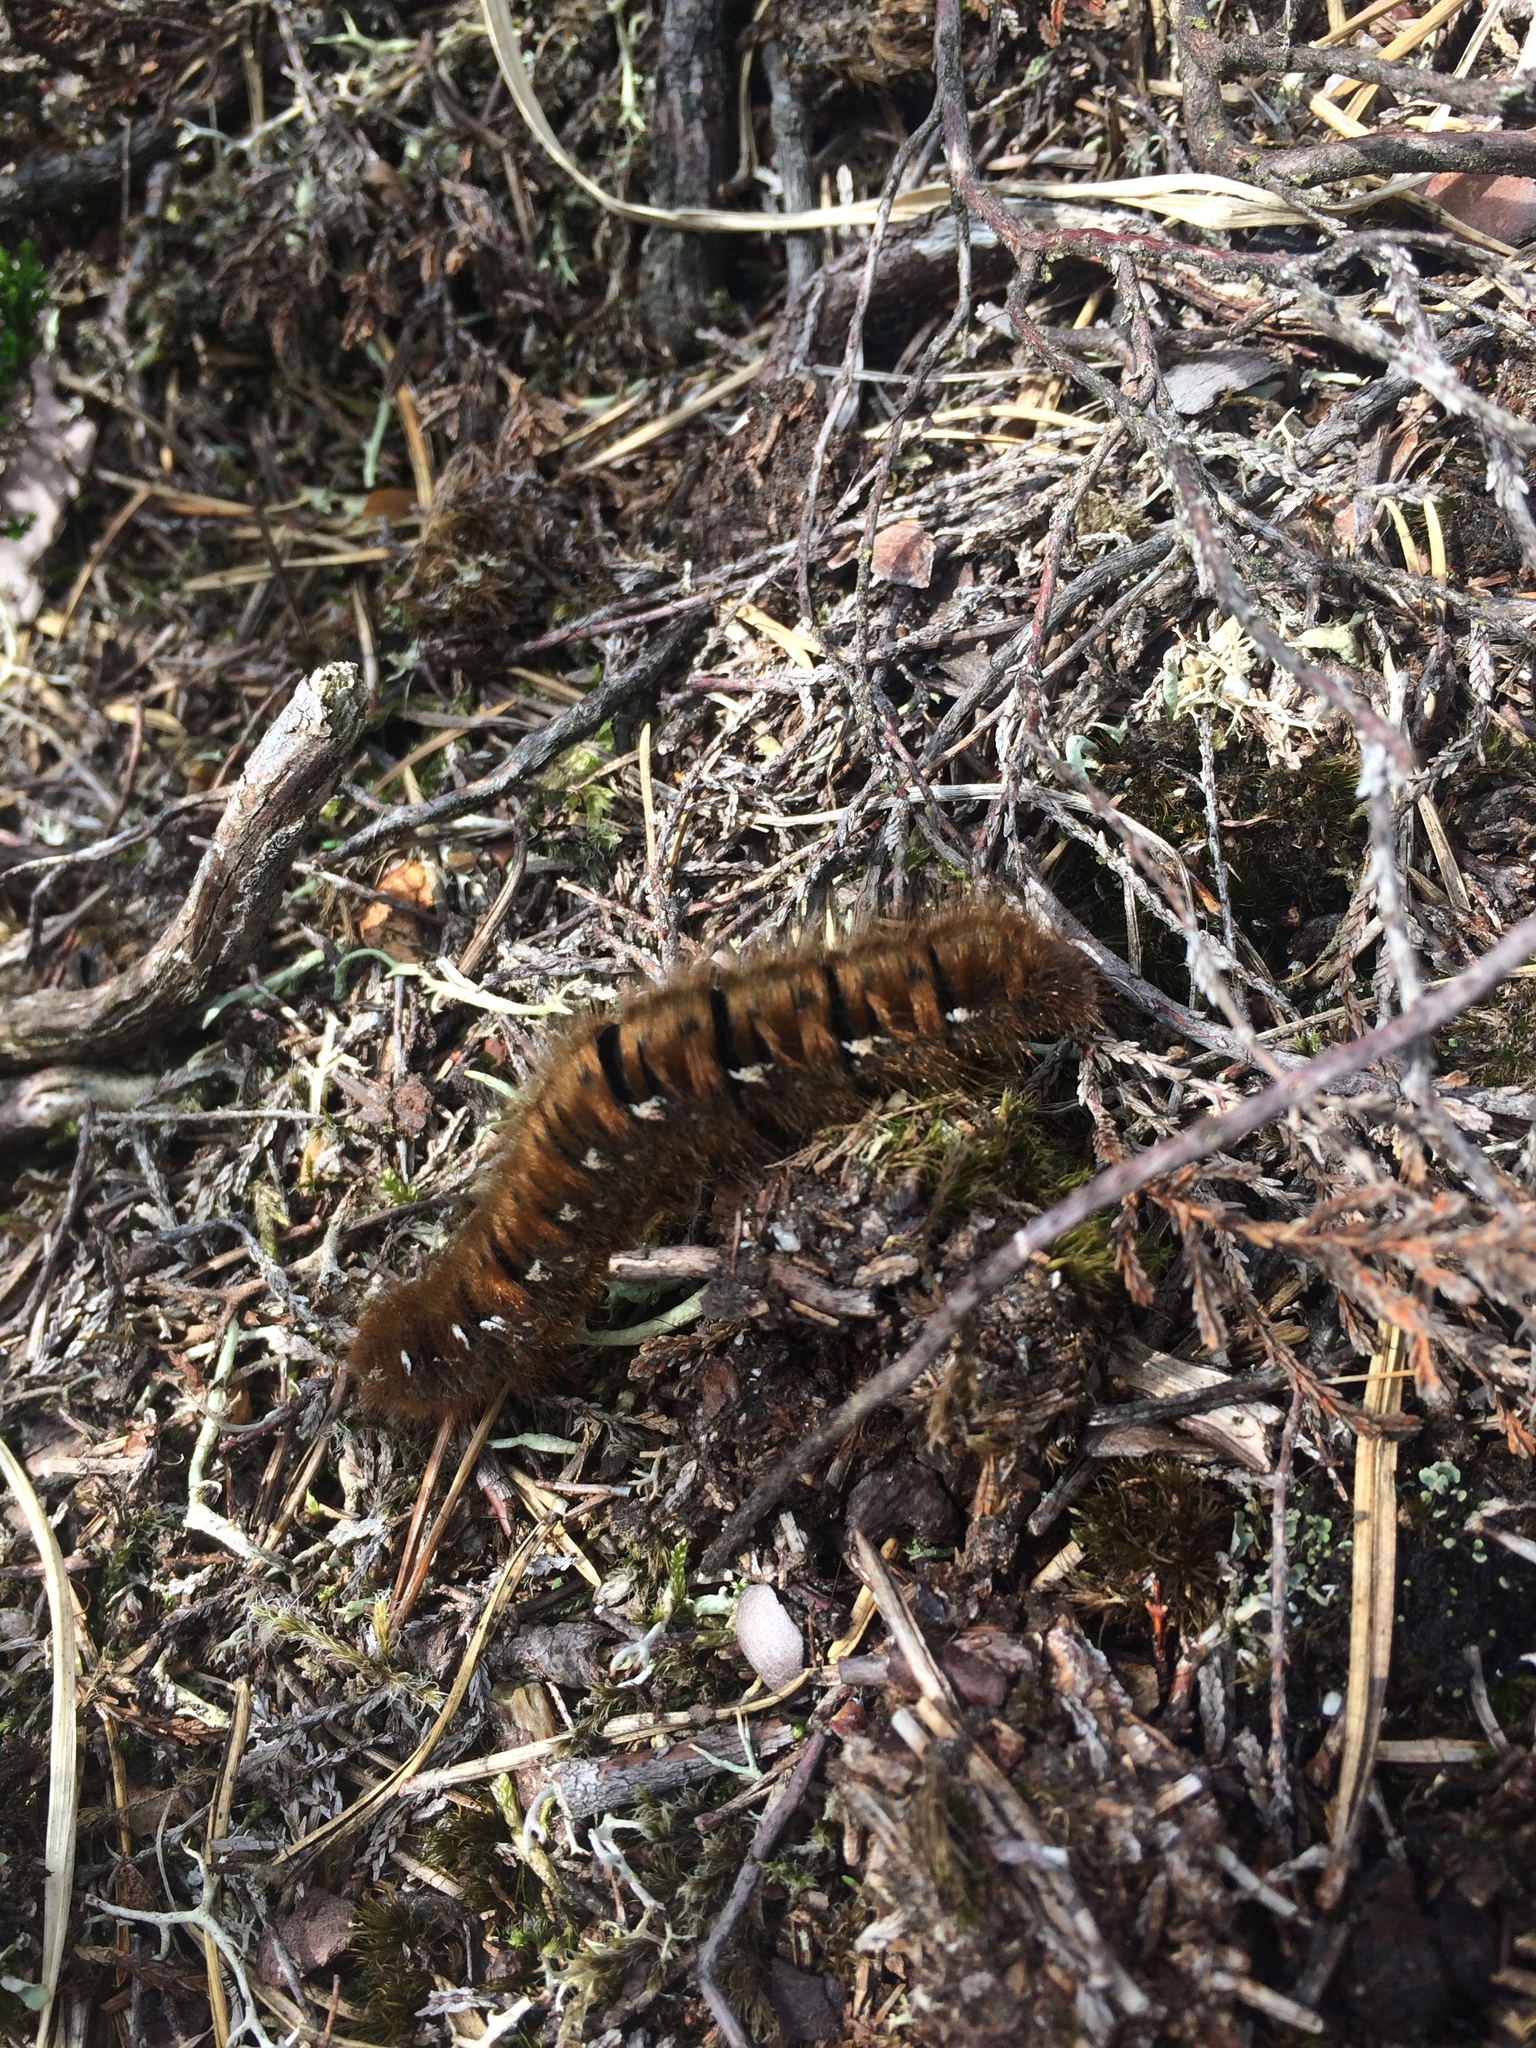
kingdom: Animalia
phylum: Arthropoda
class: Insecta
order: Lepidoptera
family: Lasiocampidae
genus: Lasiocampa
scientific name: Lasiocampa quercus
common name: Oak eggar
